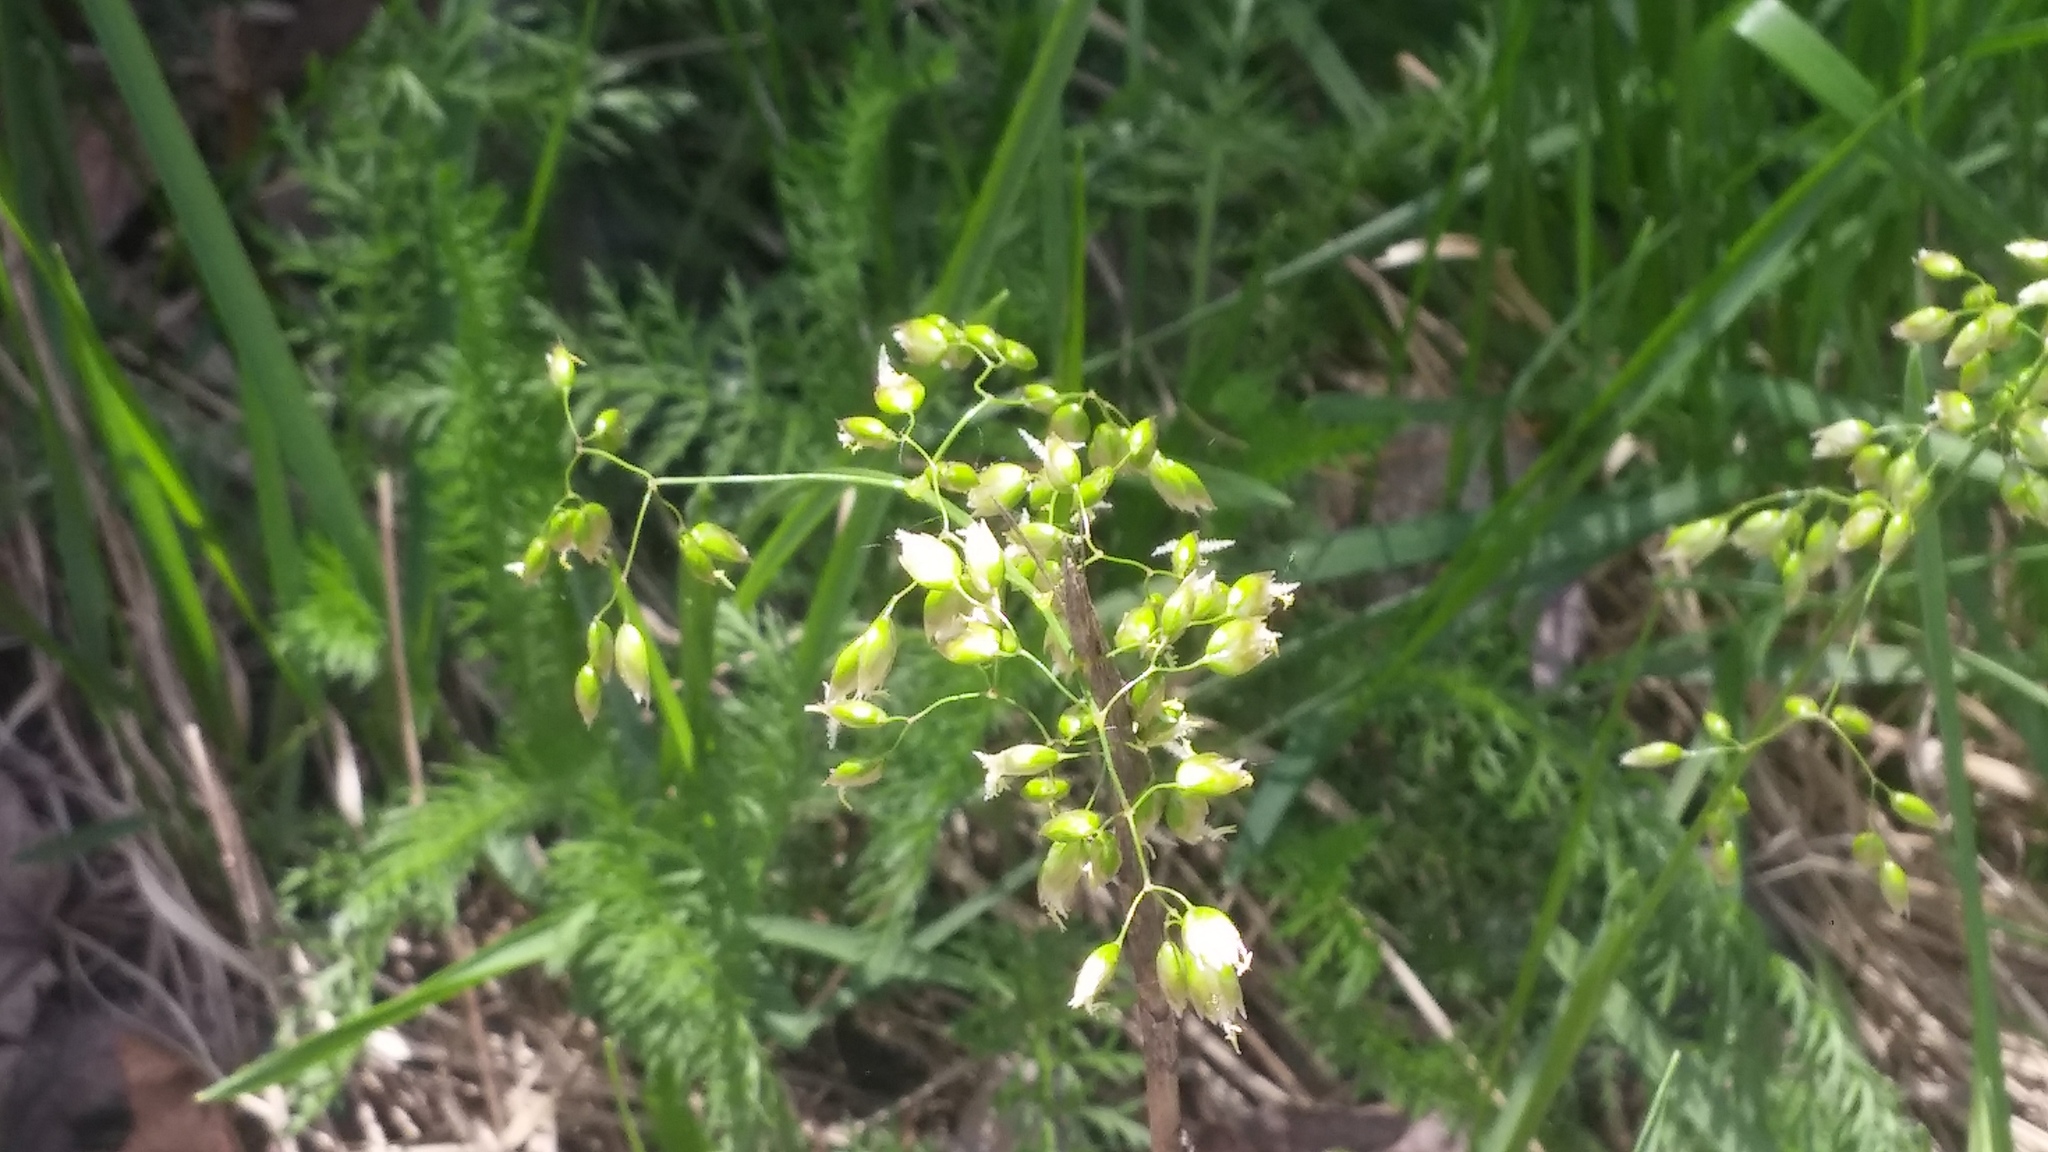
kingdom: Plantae
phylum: Tracheophyta
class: Liliopsida
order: Poales
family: Poaceae
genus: Anthoxanthum
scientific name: Anthoxanthum nitens
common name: Holy grass
